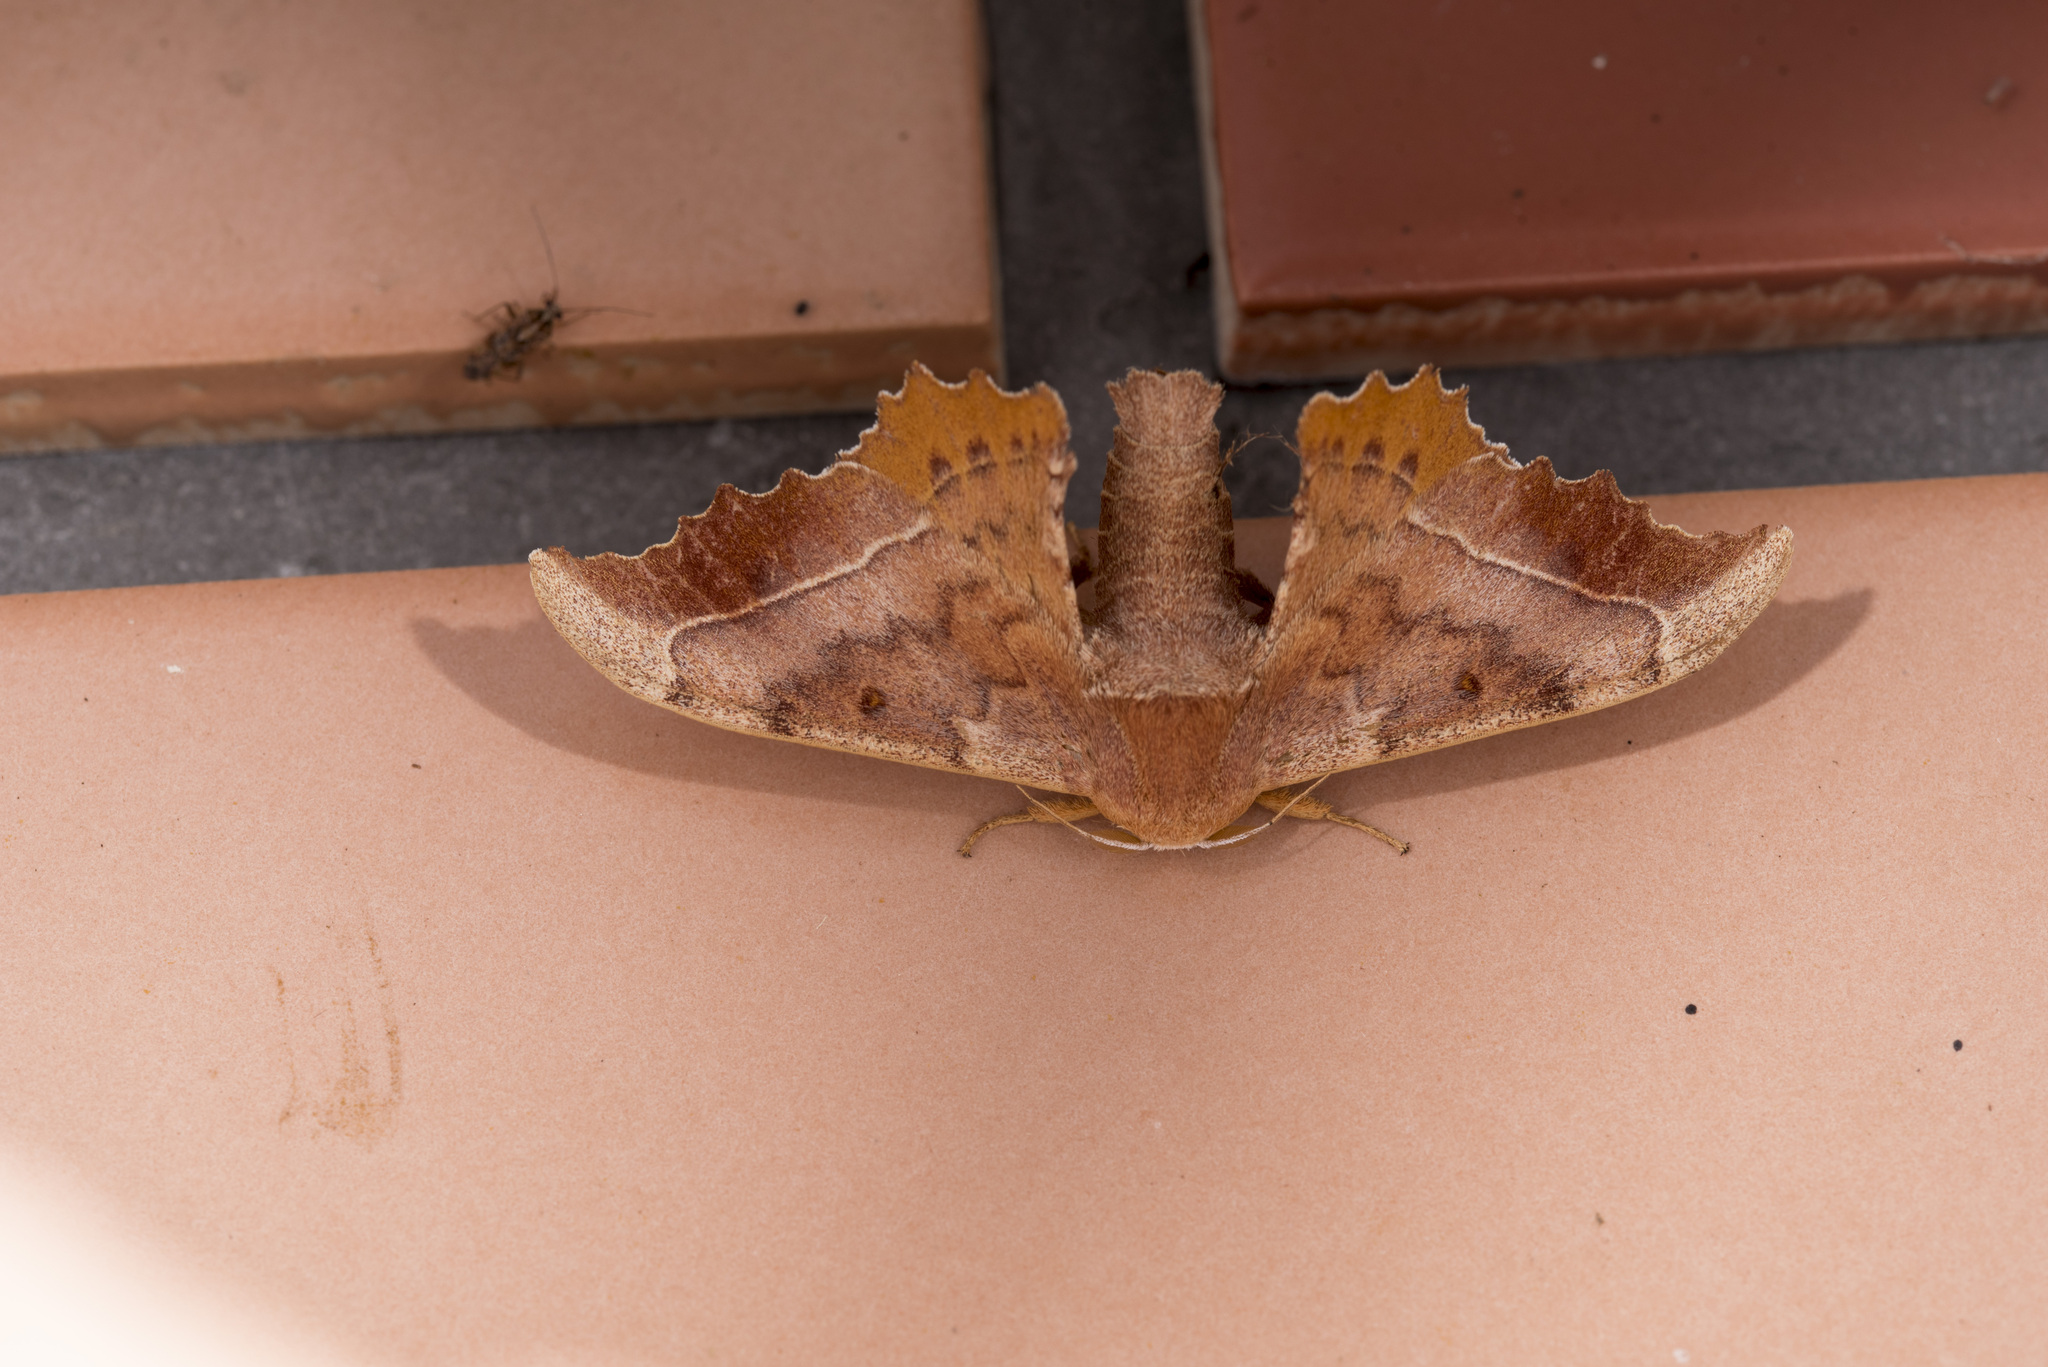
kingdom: Animalia
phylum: Arthropoda
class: Insecta
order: Lepidoptera
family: Endromidae
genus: Oberthueria
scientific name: Oberthueria formosibia
